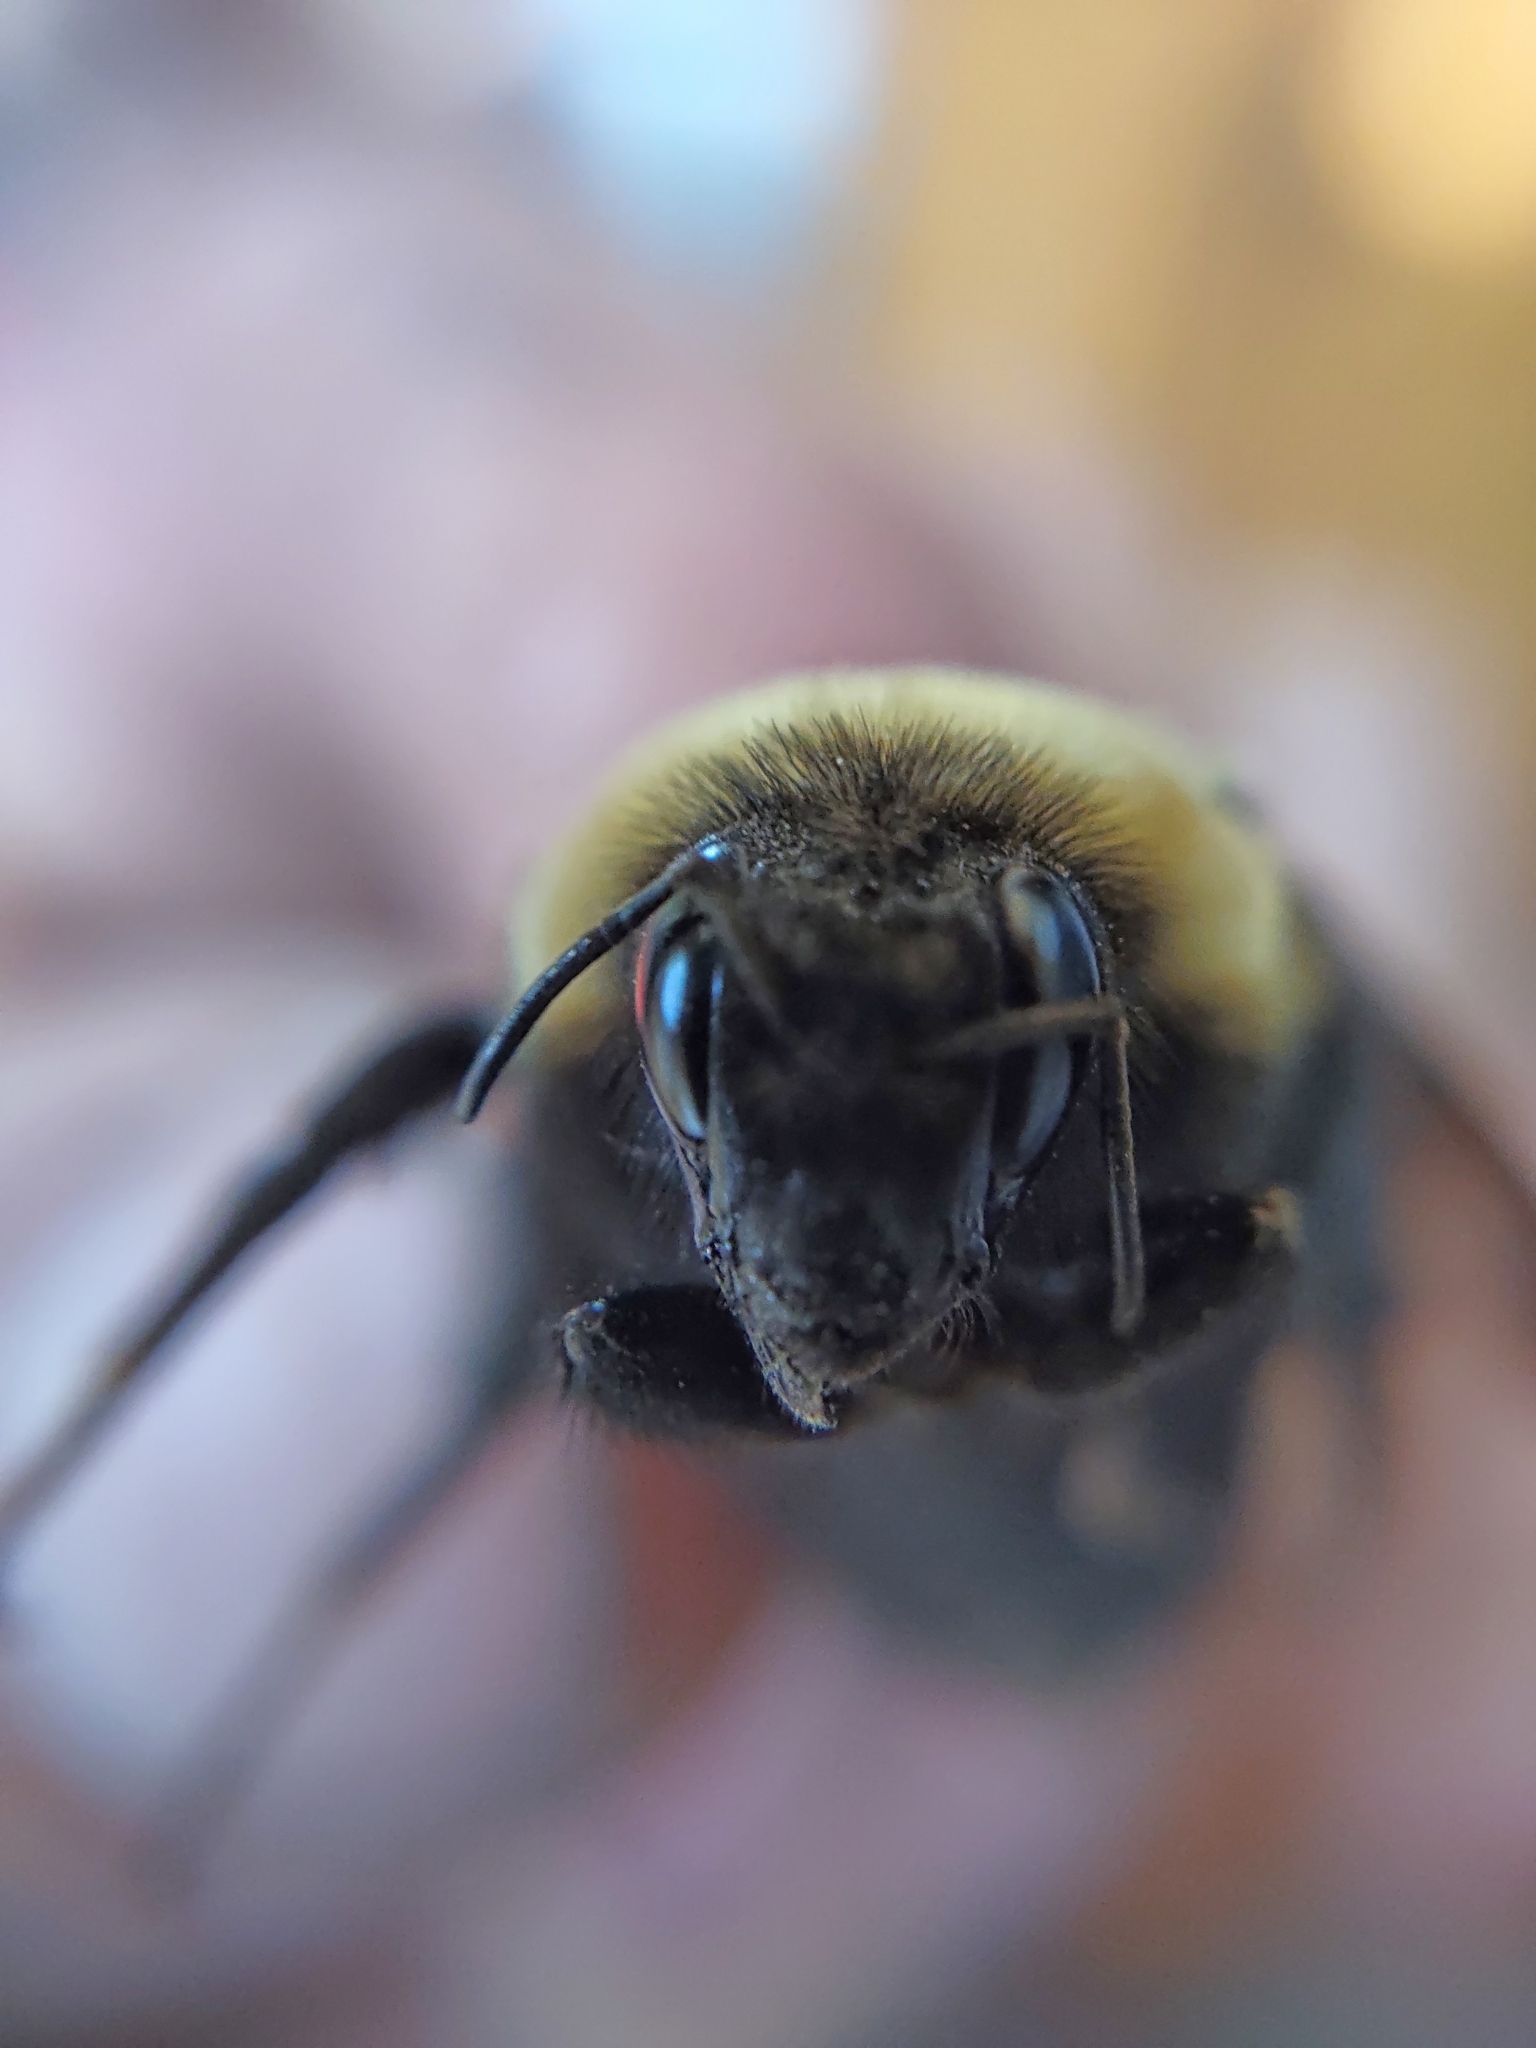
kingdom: Animalia
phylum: Arthropoda
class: Insecta
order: Hymenoptera
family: Apidae
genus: Bombus
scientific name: Bombus nevadensis
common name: Nevada bumble bee
